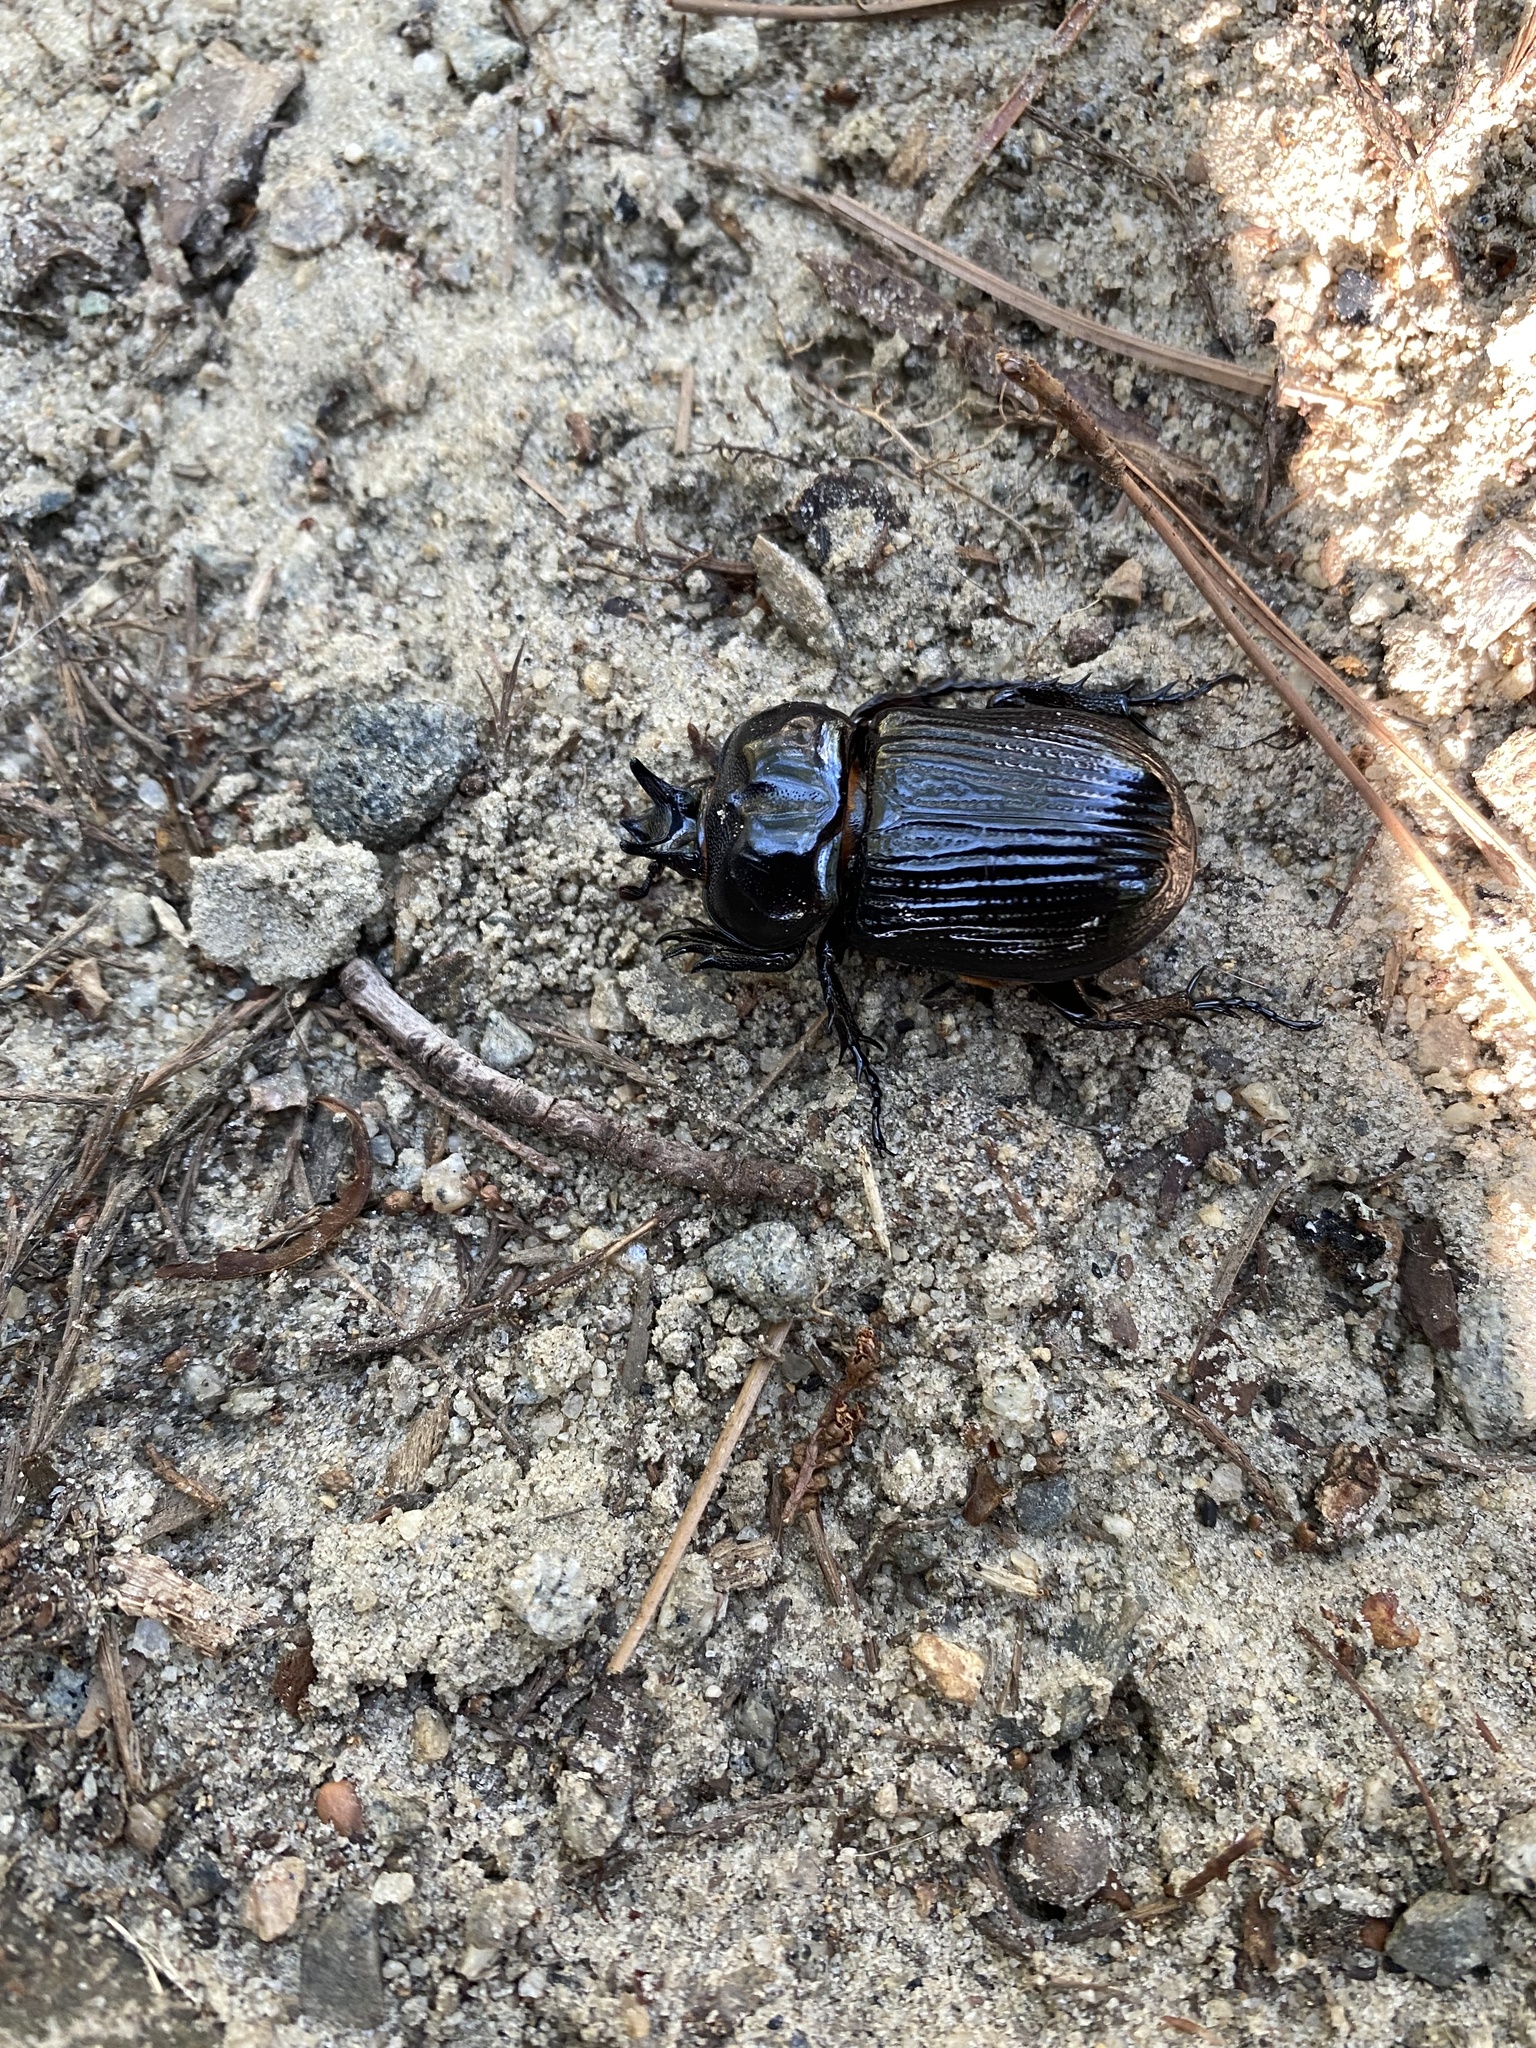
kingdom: Animalia
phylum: Arthropoda
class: Insecta
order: Coleoptera
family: Scarabaeidae
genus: Phileurus
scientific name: Phileurus truncatus
